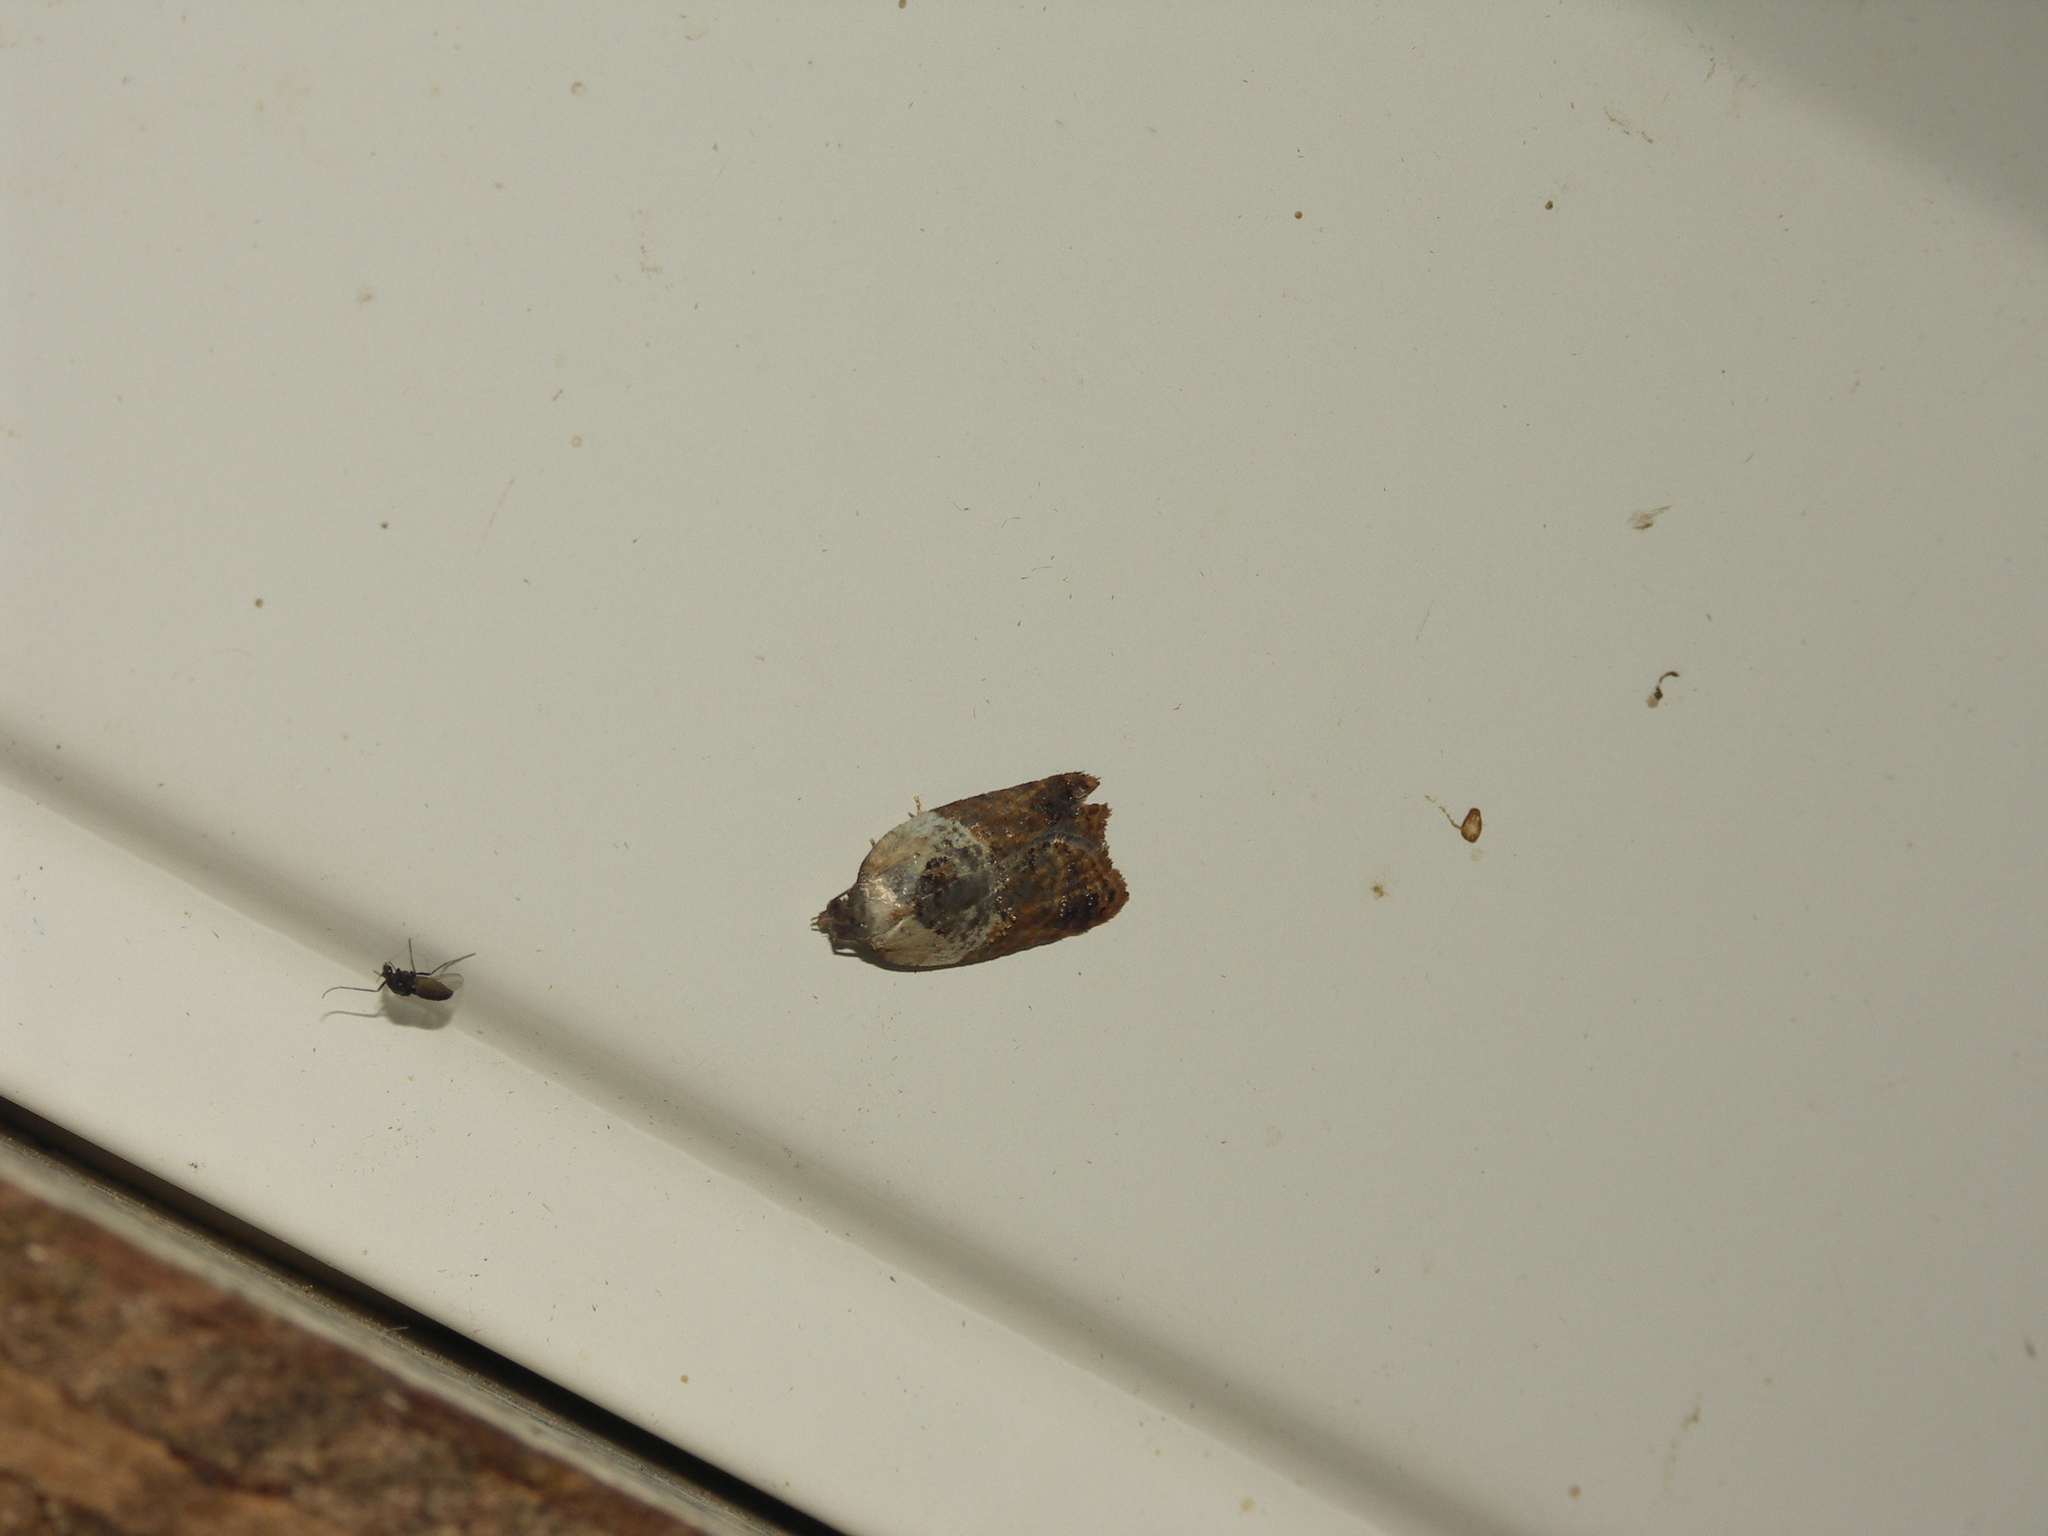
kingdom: Animalia
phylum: Arthropoda
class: Insecta
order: Lepidoptera
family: Tortricidae
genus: Acleris
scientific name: Acleris variegana
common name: Garden rose tortrix
